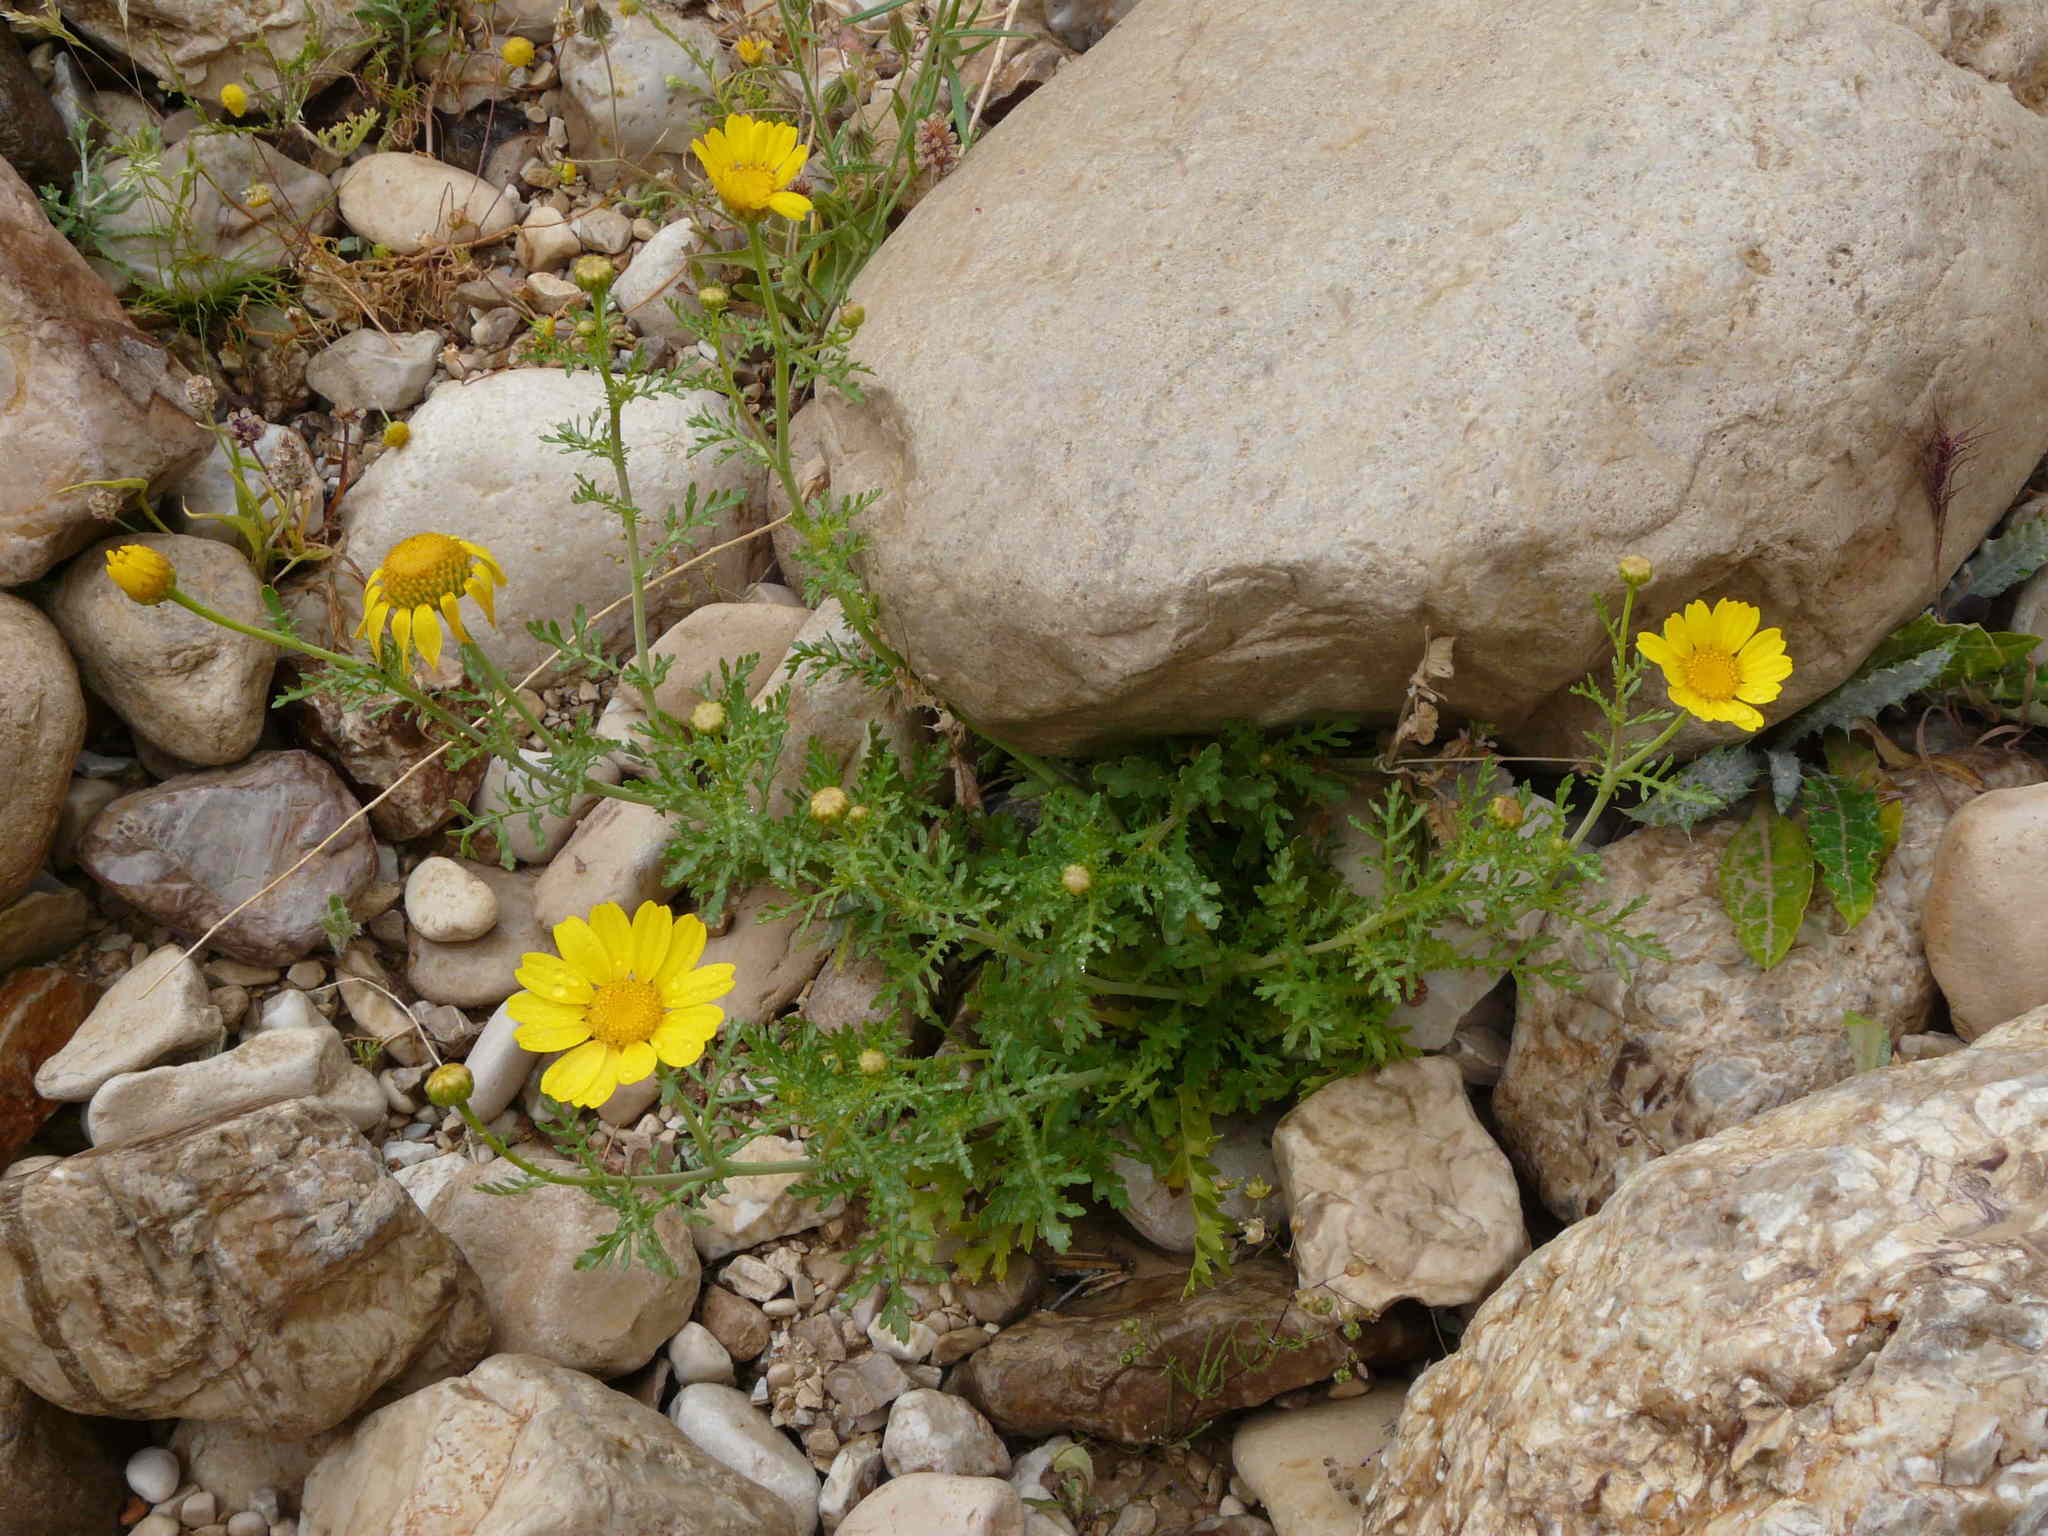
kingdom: Plantae
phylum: Tracheophyta
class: Magnoliopsida
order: Asterales
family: Asteraceae
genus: Glebionis
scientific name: Glebionis coronaria
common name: Crowndaisy
